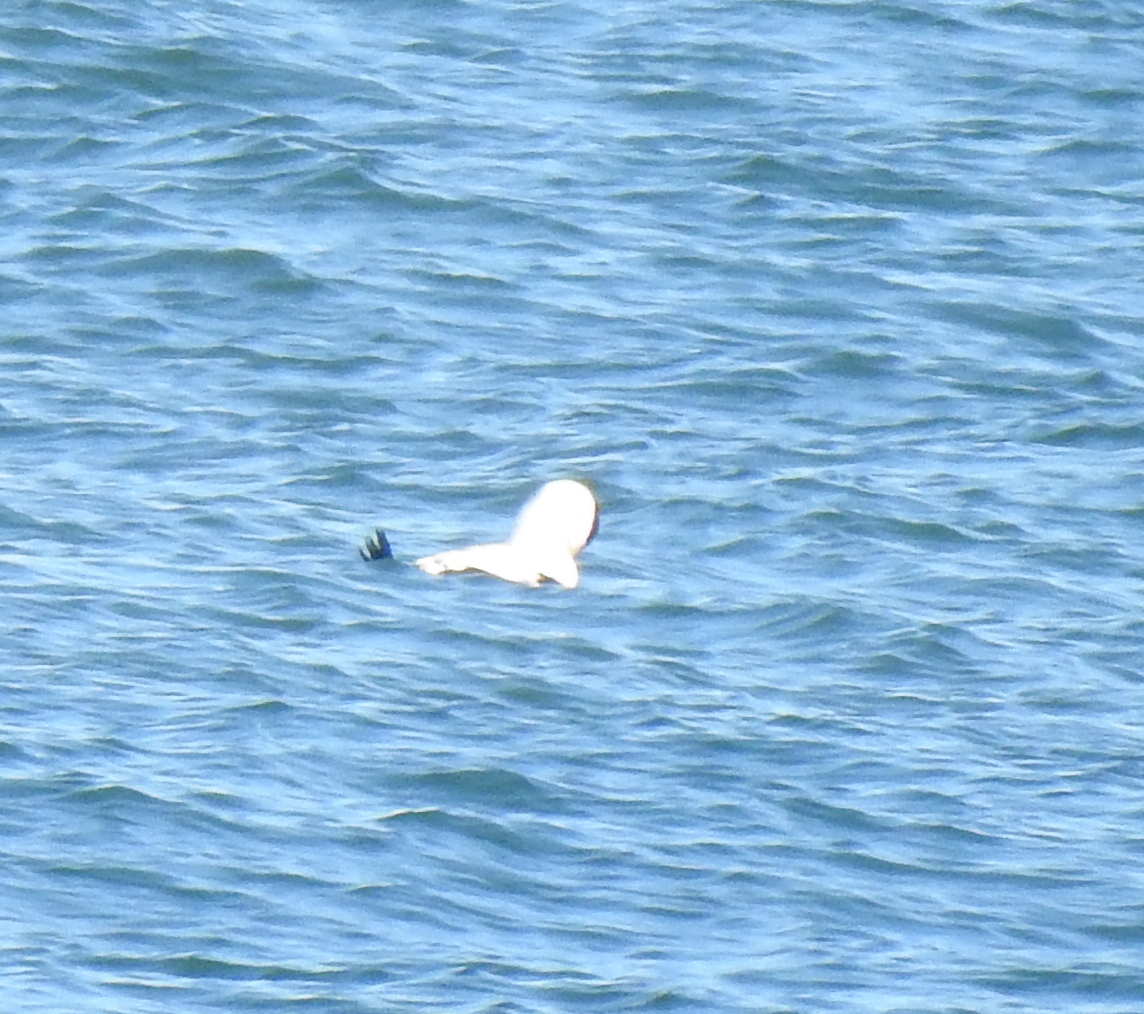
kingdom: Animalia
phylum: Chordata
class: Aves
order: Anseriformes
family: Anatidae
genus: Somateria
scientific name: Somateria mollissima
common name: Common eider
